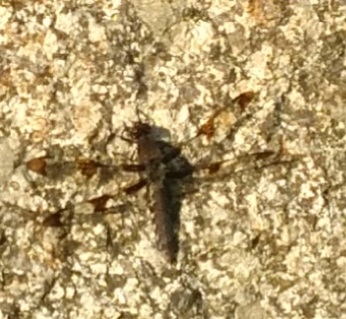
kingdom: Animalia
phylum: Arthropoda
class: Insecta
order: Odonata
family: Libellulidae
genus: Plathemis
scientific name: Plathemis lydia
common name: Common whitetail
